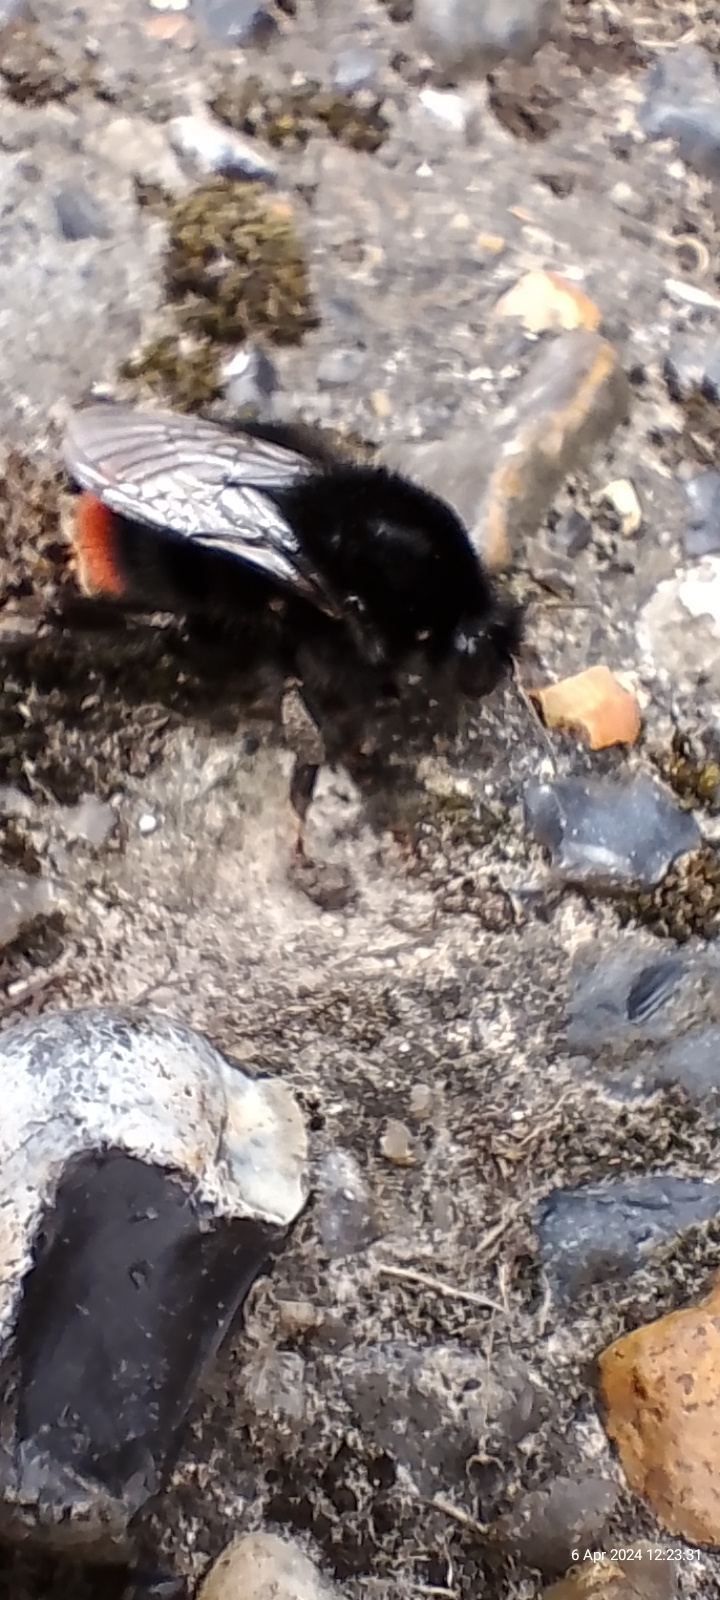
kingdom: Animalia
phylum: Arthropoda
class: Insecta
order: Hymenoptera
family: Apidae
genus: Bombus
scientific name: Bombus lapidarius
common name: Large red-tailed humble-bee
